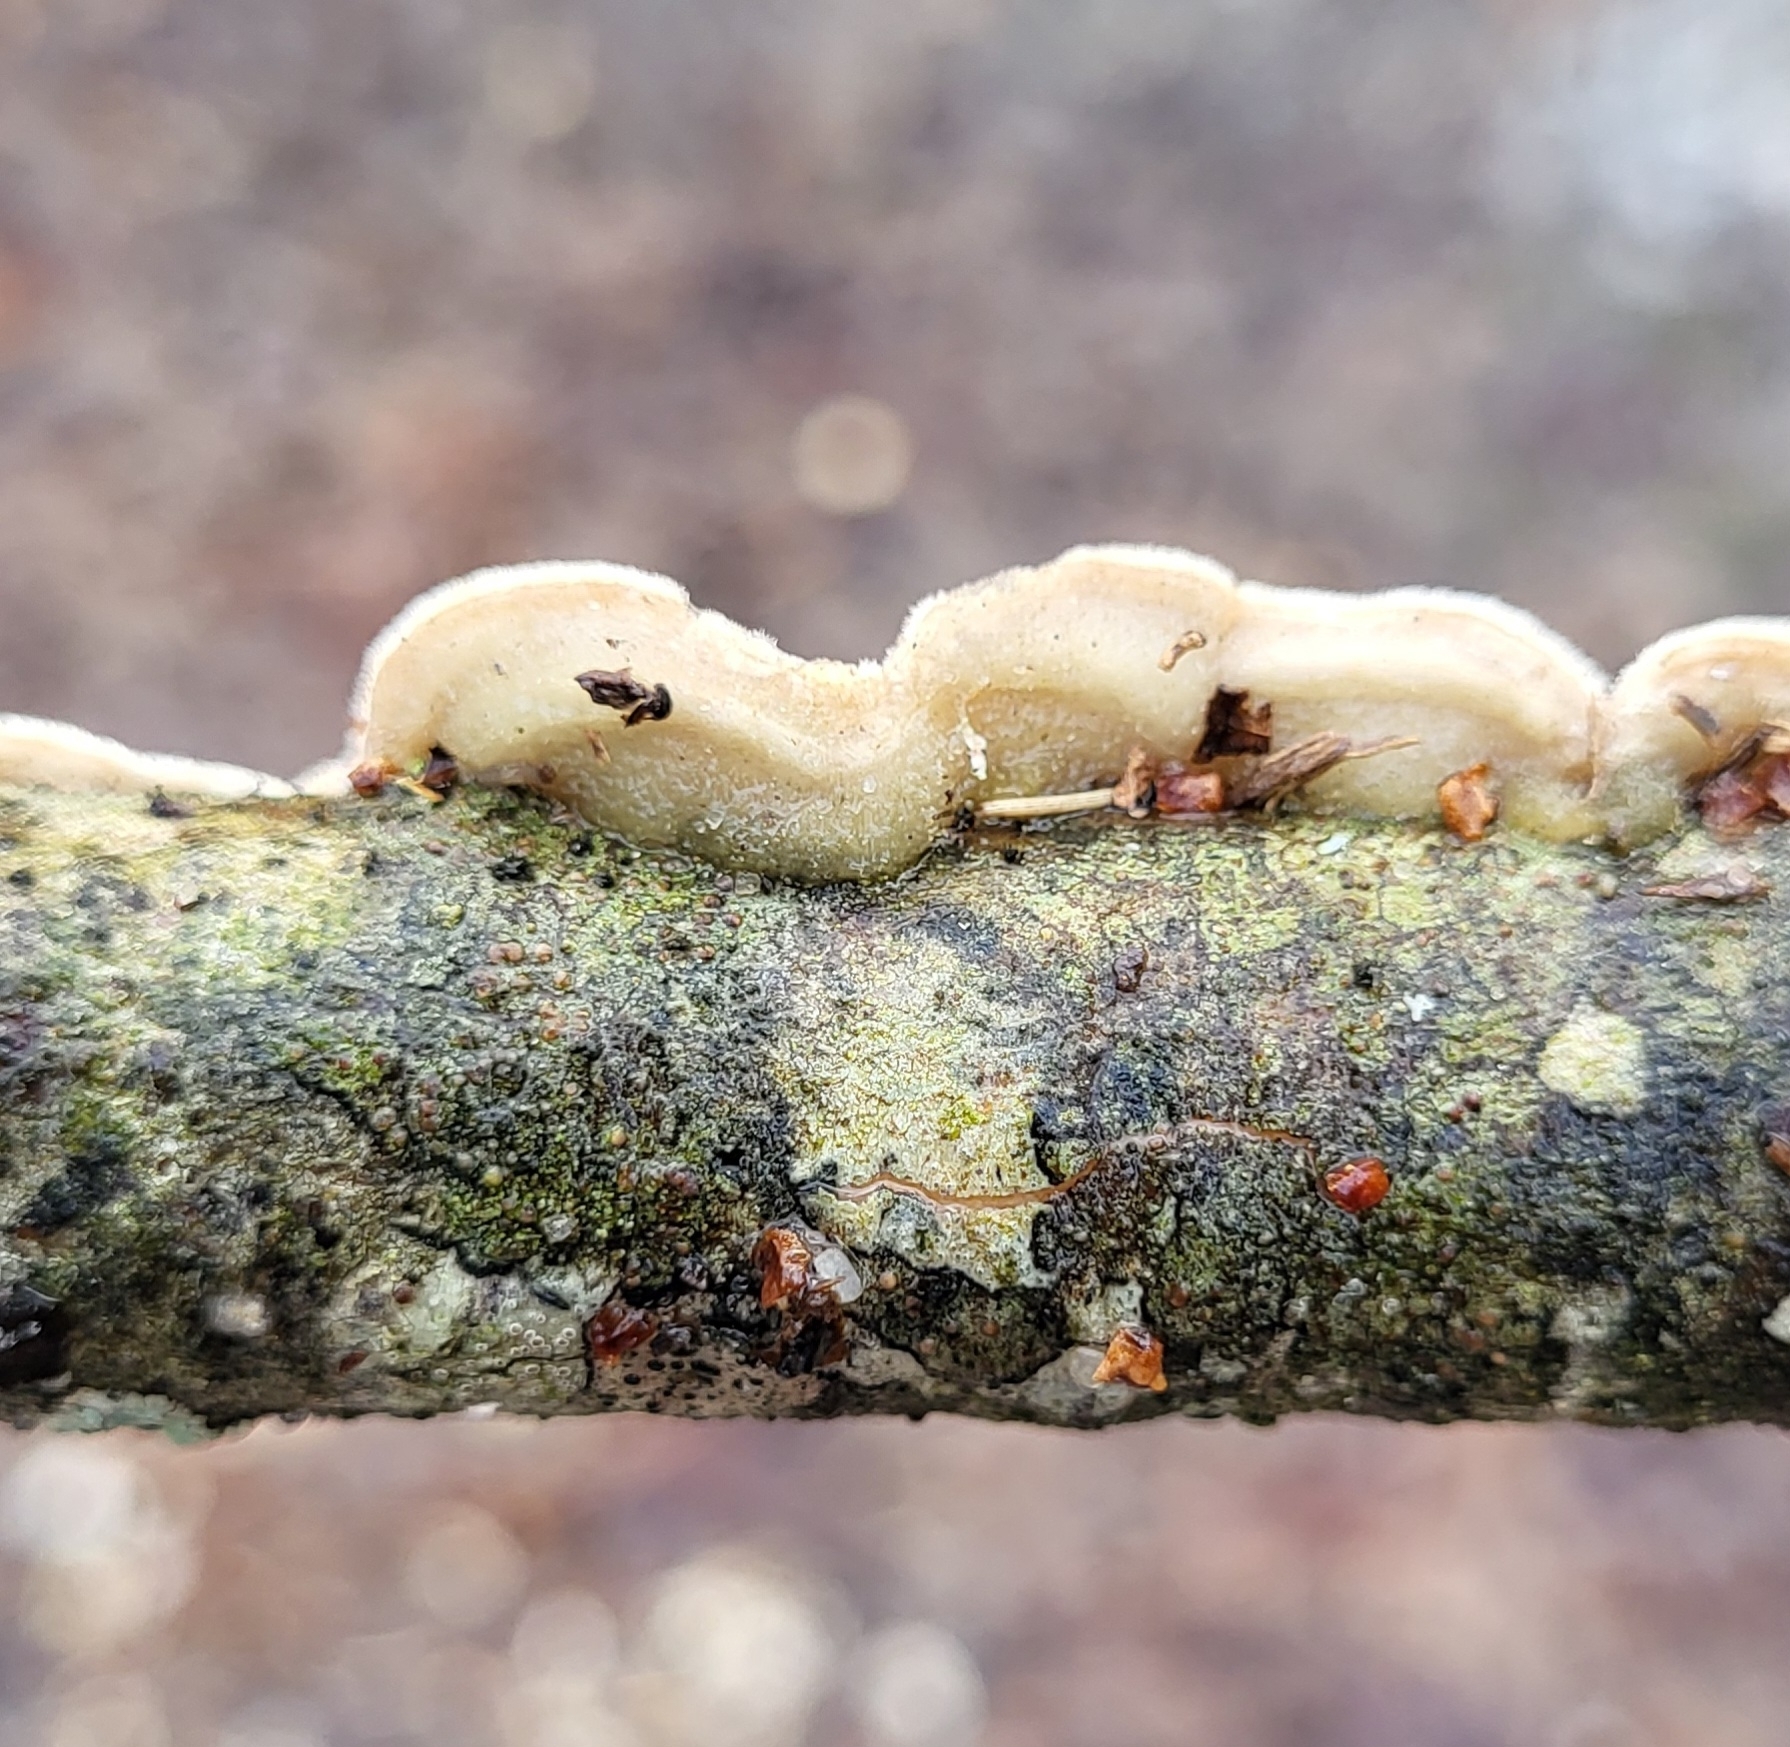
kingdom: Fungi
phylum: Basidiomycota
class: Agaricomycetes
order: Polyporales
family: Irpicaceae
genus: Byssomerulius
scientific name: Byssomerulius corium
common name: Netted crust
